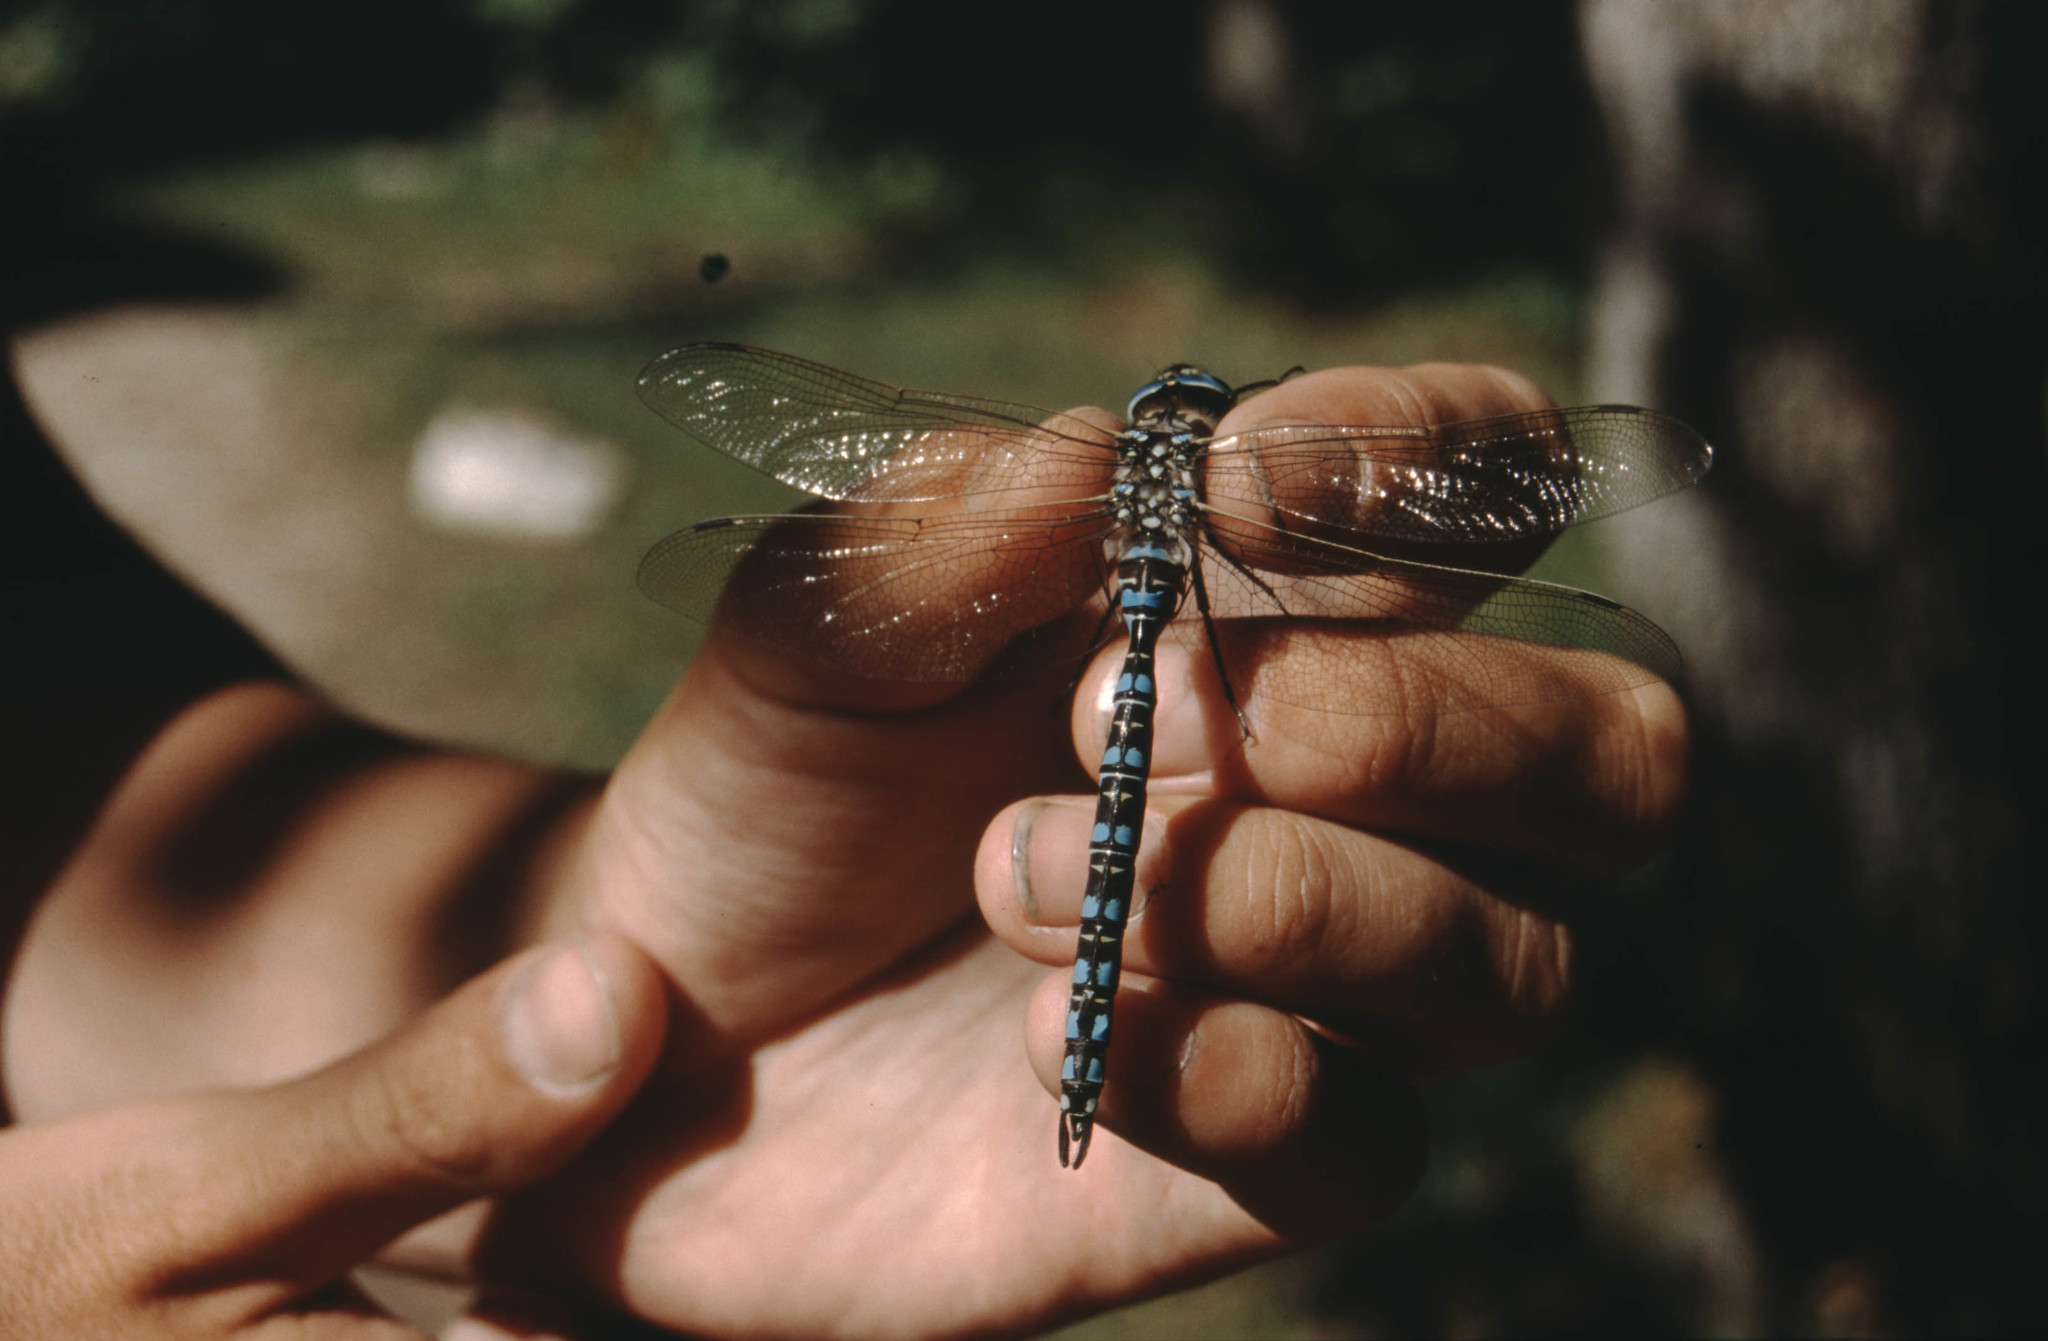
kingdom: Animalia
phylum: Arthropoda
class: Insecta
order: Odonata
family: Aeshnidae
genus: Aeshna
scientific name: Aeshna serrata
